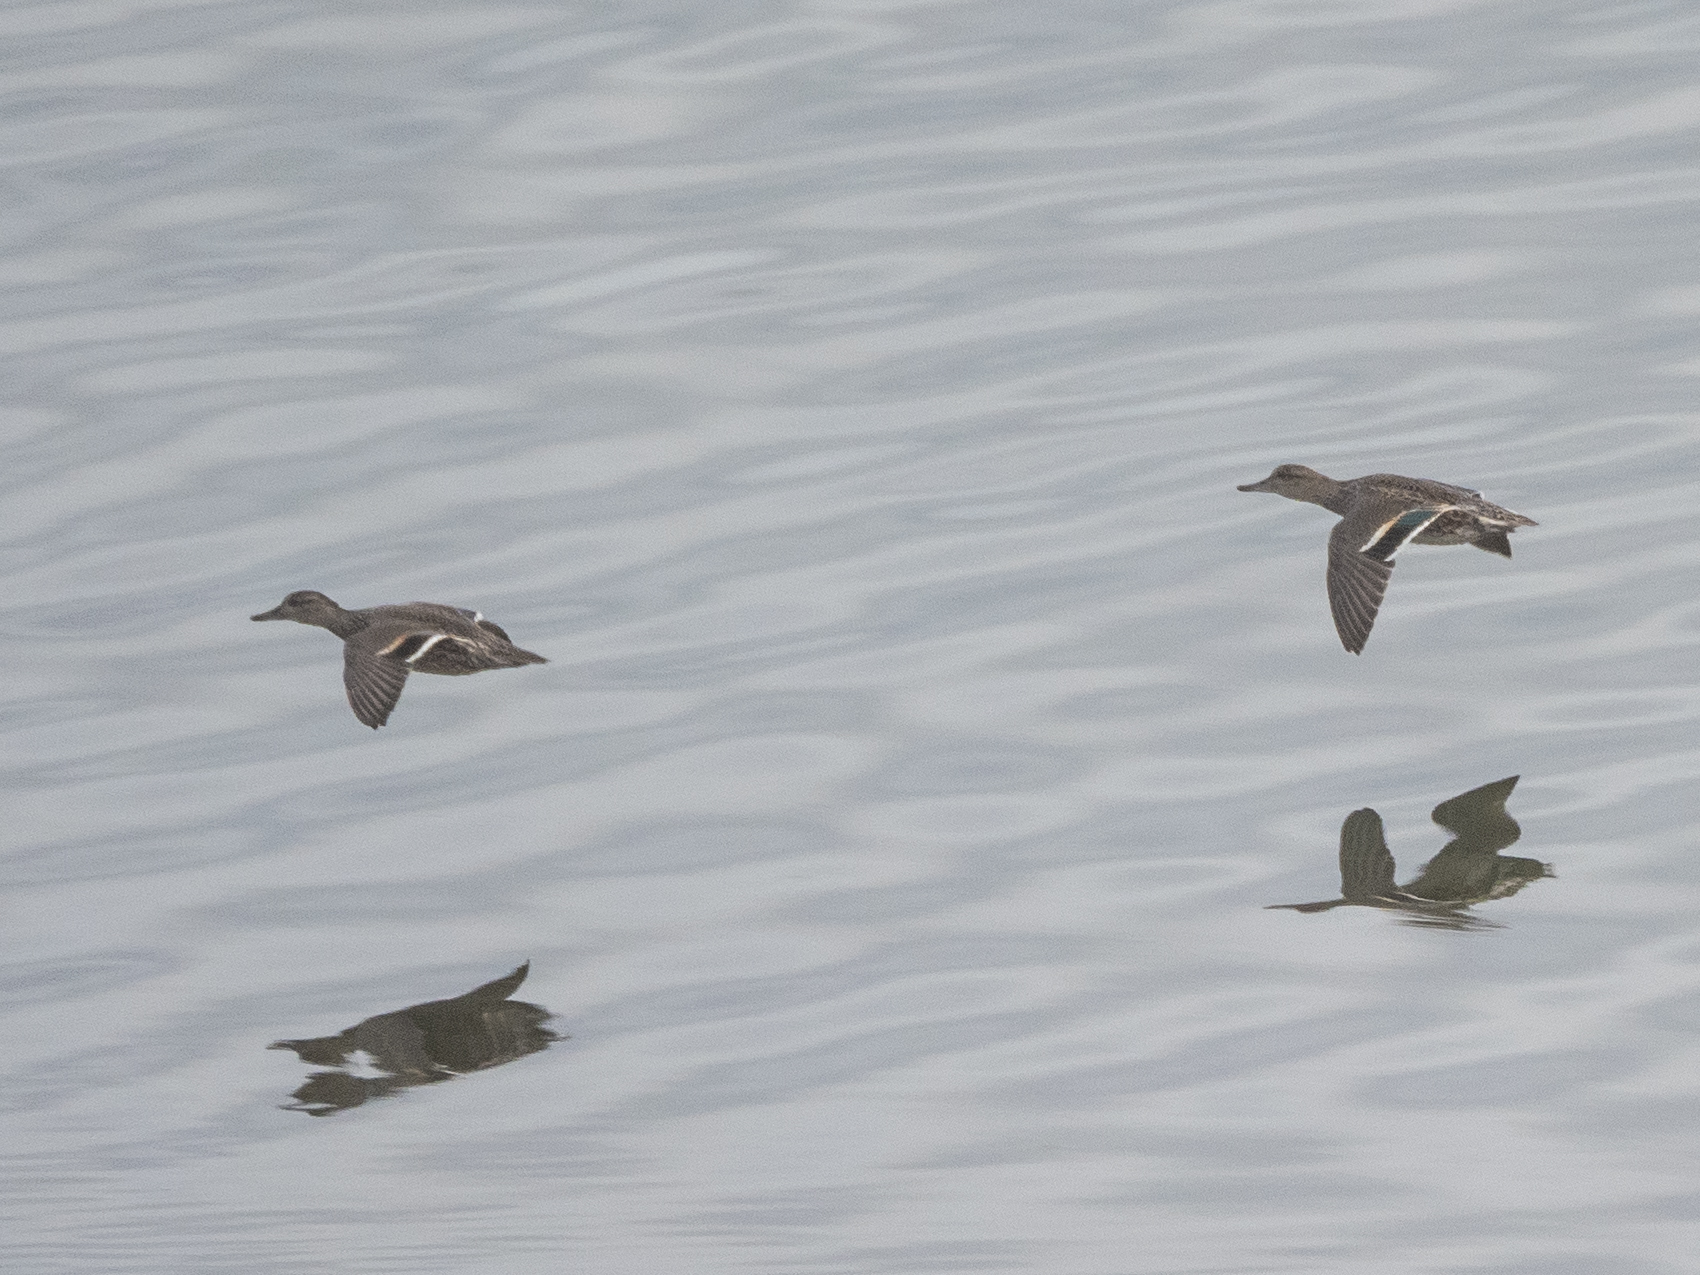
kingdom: Animalia
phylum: Chordata
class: Aves
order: Anseriformes
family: Anatidae
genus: Anas
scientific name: Anas crecca
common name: Eurasian teal
